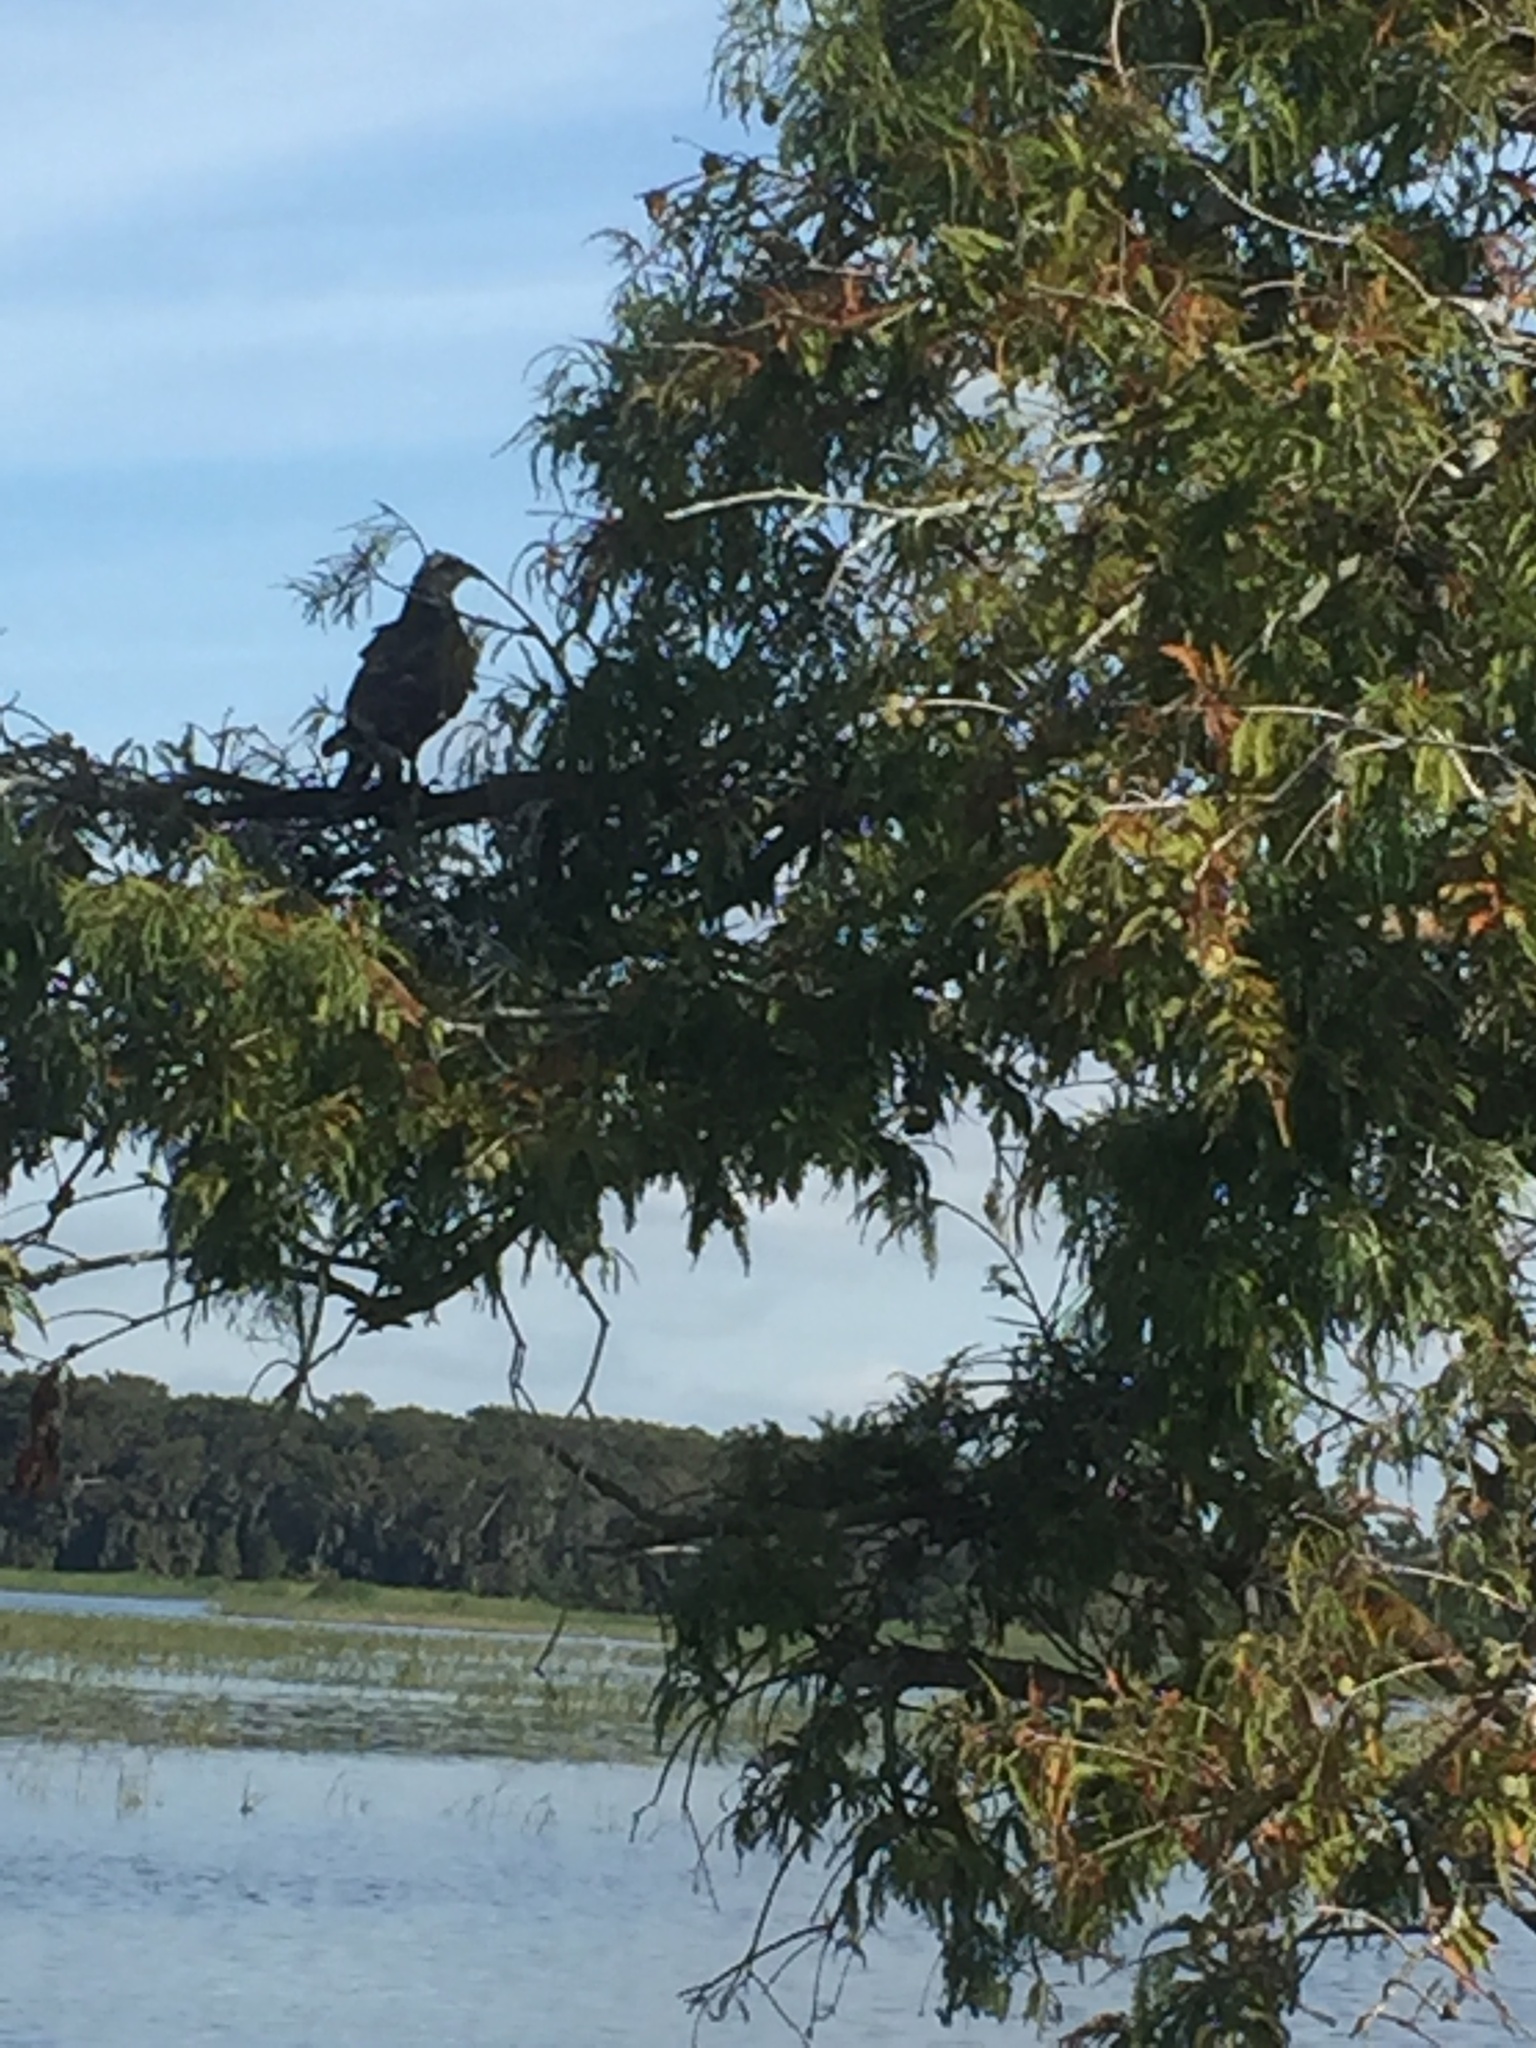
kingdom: Animalia
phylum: Chordata
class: Aves
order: Accipitriformes
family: Pandionidae
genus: Pandion
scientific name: Pandion haliaetus
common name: Osprey
